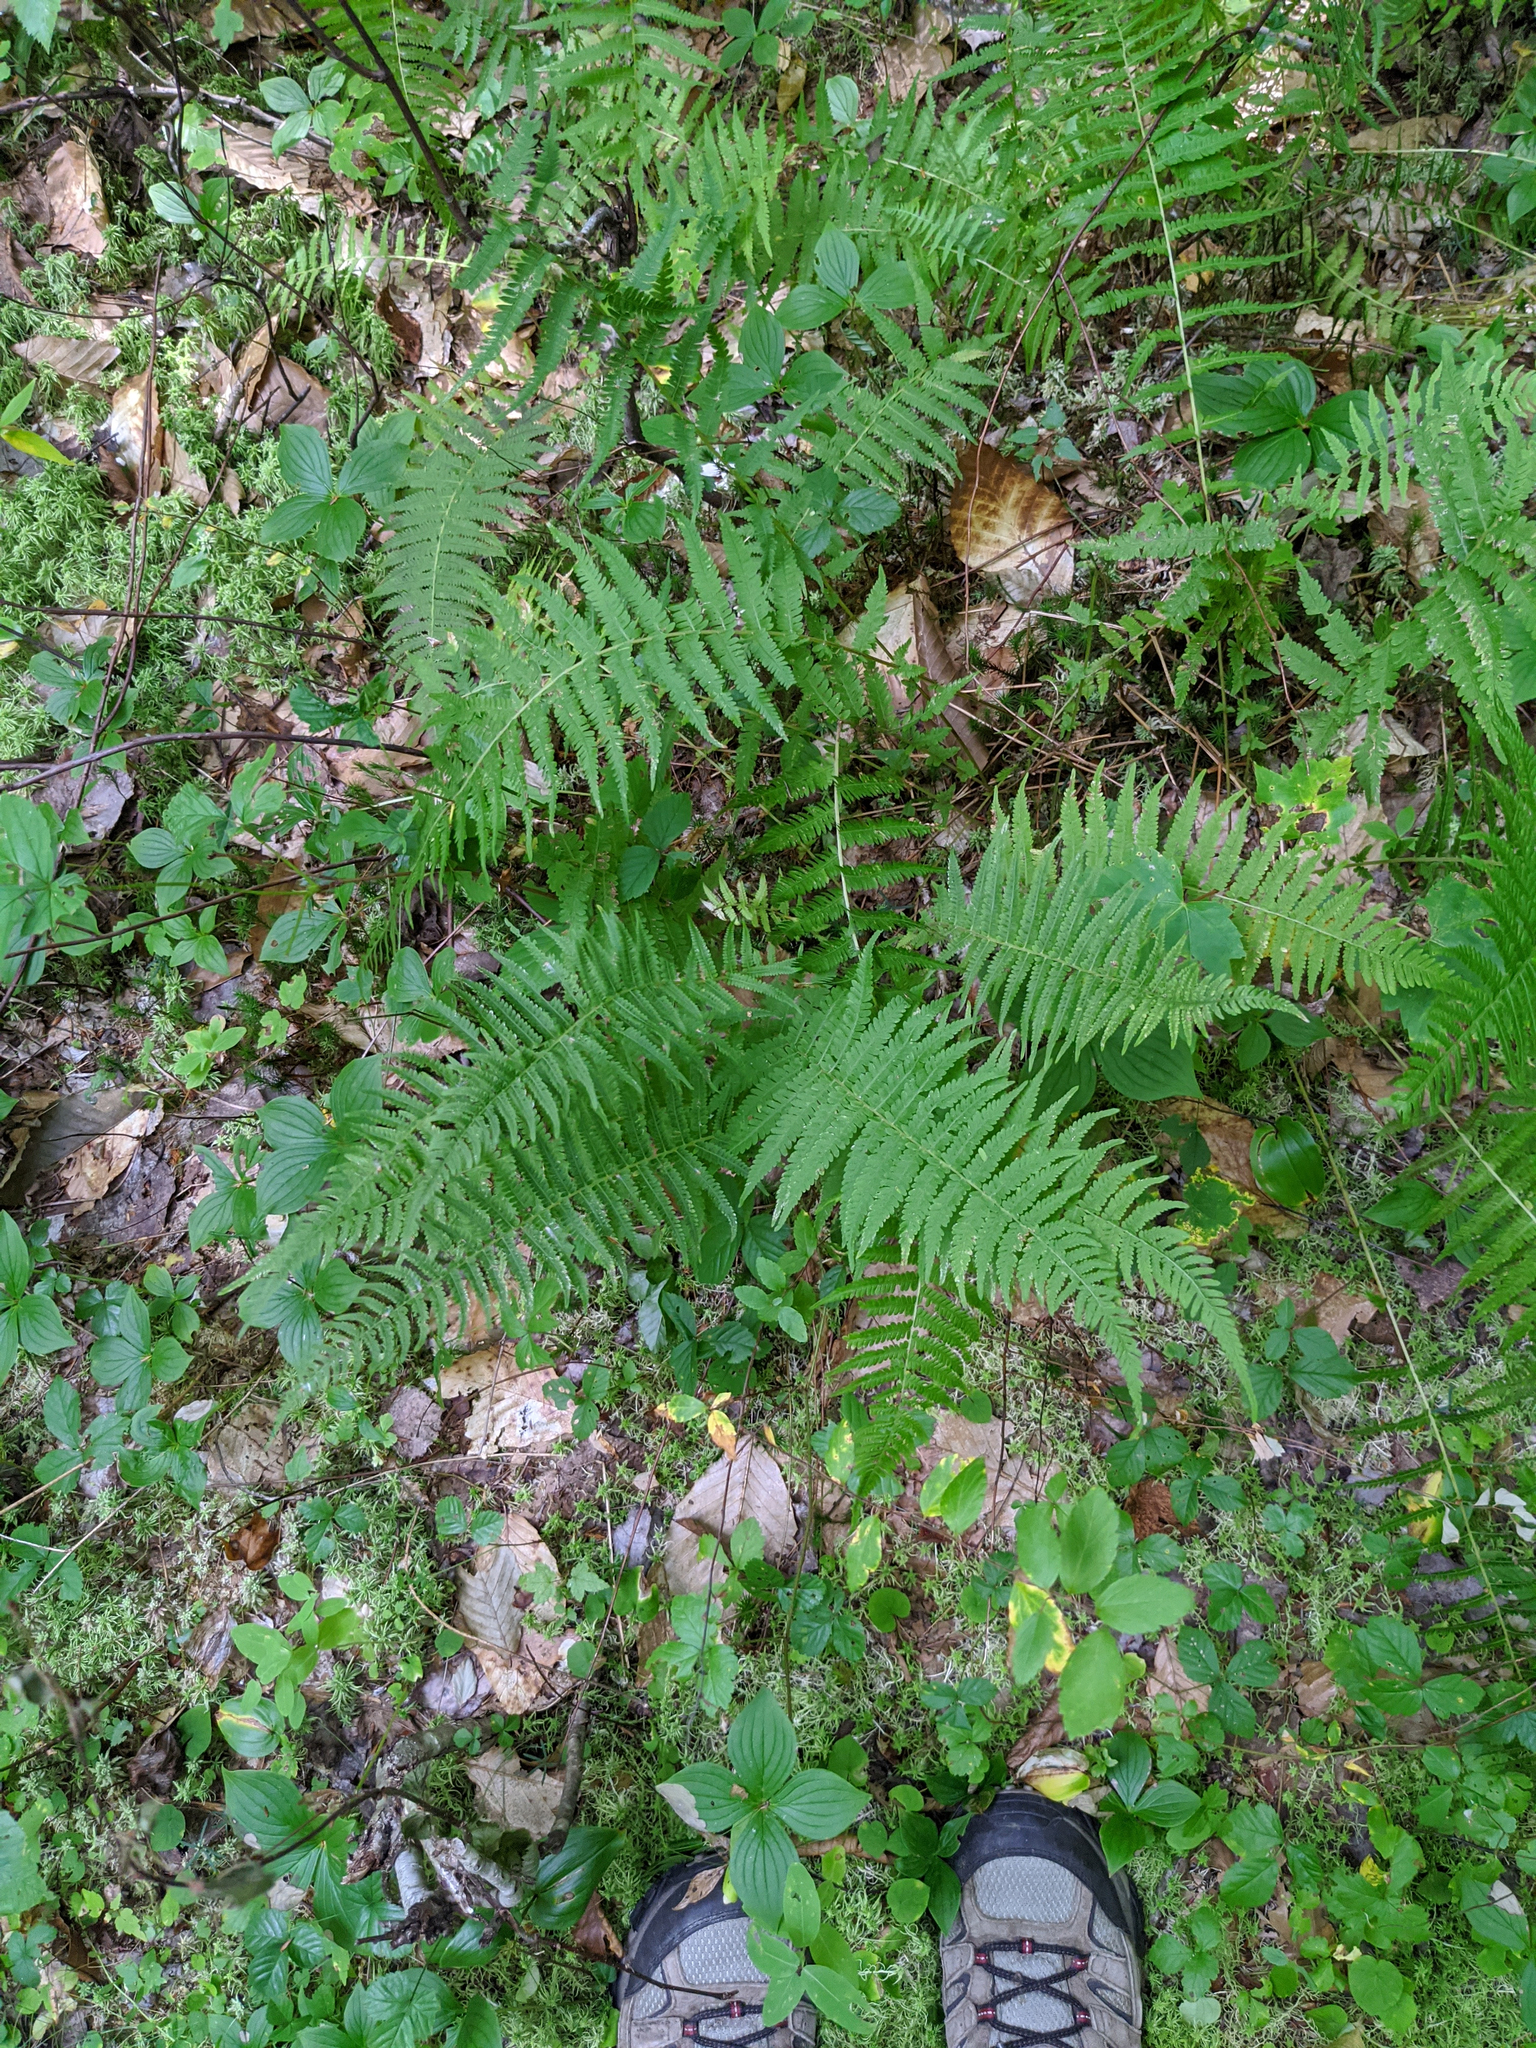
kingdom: Plantae
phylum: Tracheophyta
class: Polypodiopsida
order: Polypodiales
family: Thelypteridaceae
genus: Amauropelta
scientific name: Amauropelta noveboracensis
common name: New york fern
